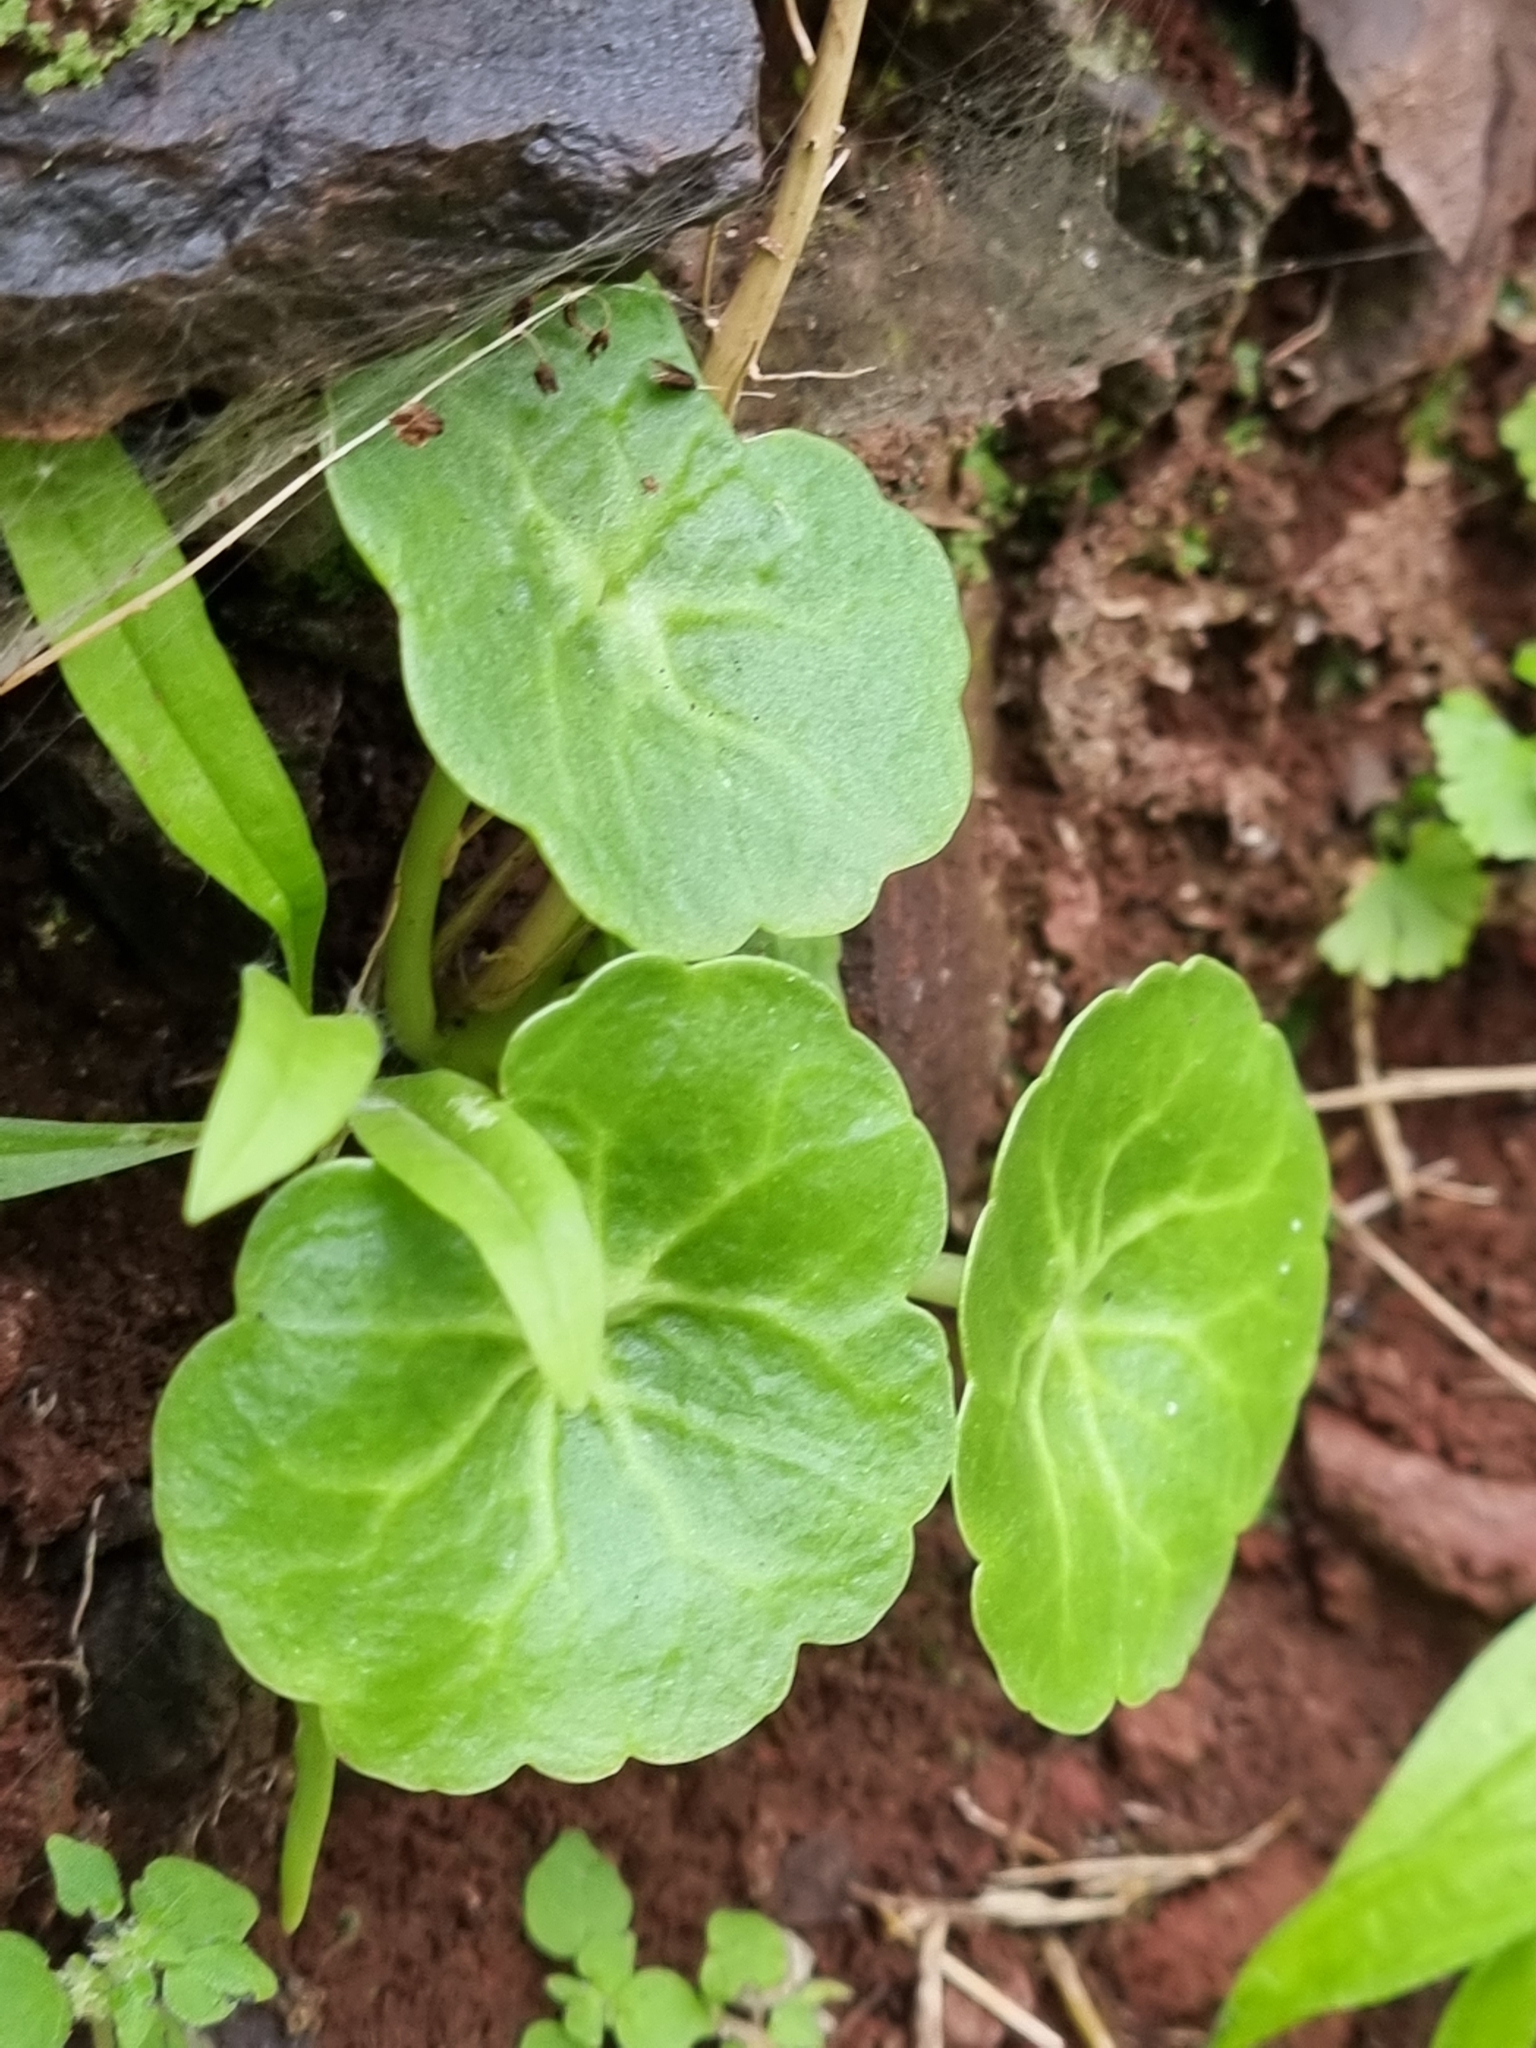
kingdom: Plantae
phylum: Tracheophyta
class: Magnoliopsida
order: Saxifragales
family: Crassulaceae
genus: Umbilicus
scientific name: Umbilicus rupestris
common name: Navelwort
